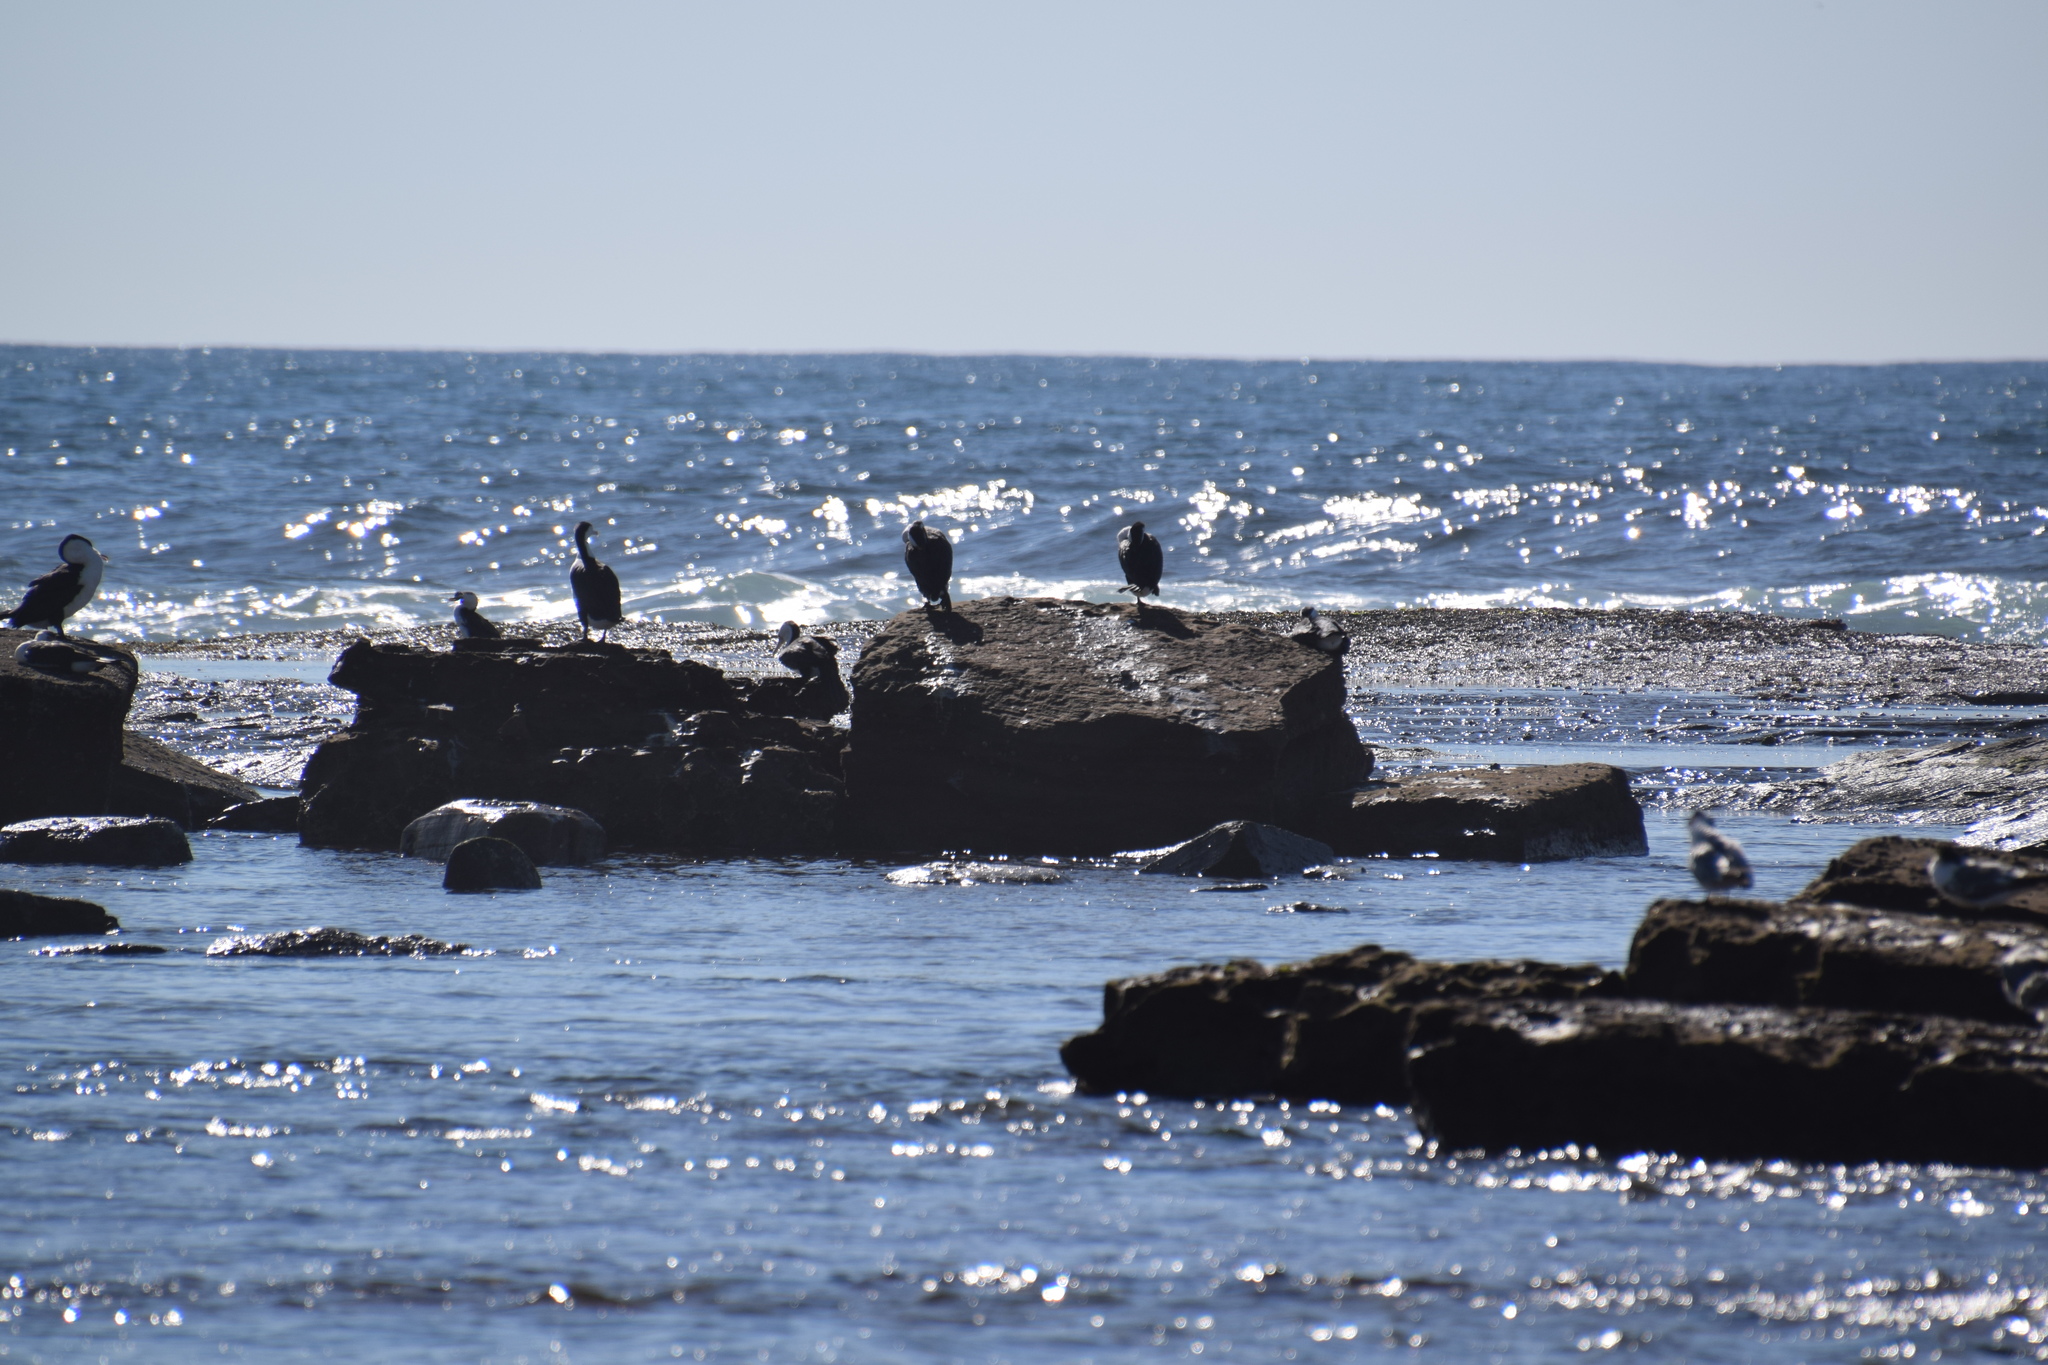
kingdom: Animalia
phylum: Chordata
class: Aves
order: Suliformes
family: Phalacrocoracidae
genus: Phalacrocorax
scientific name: Phalacrocorax varius
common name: Pied cormorant
